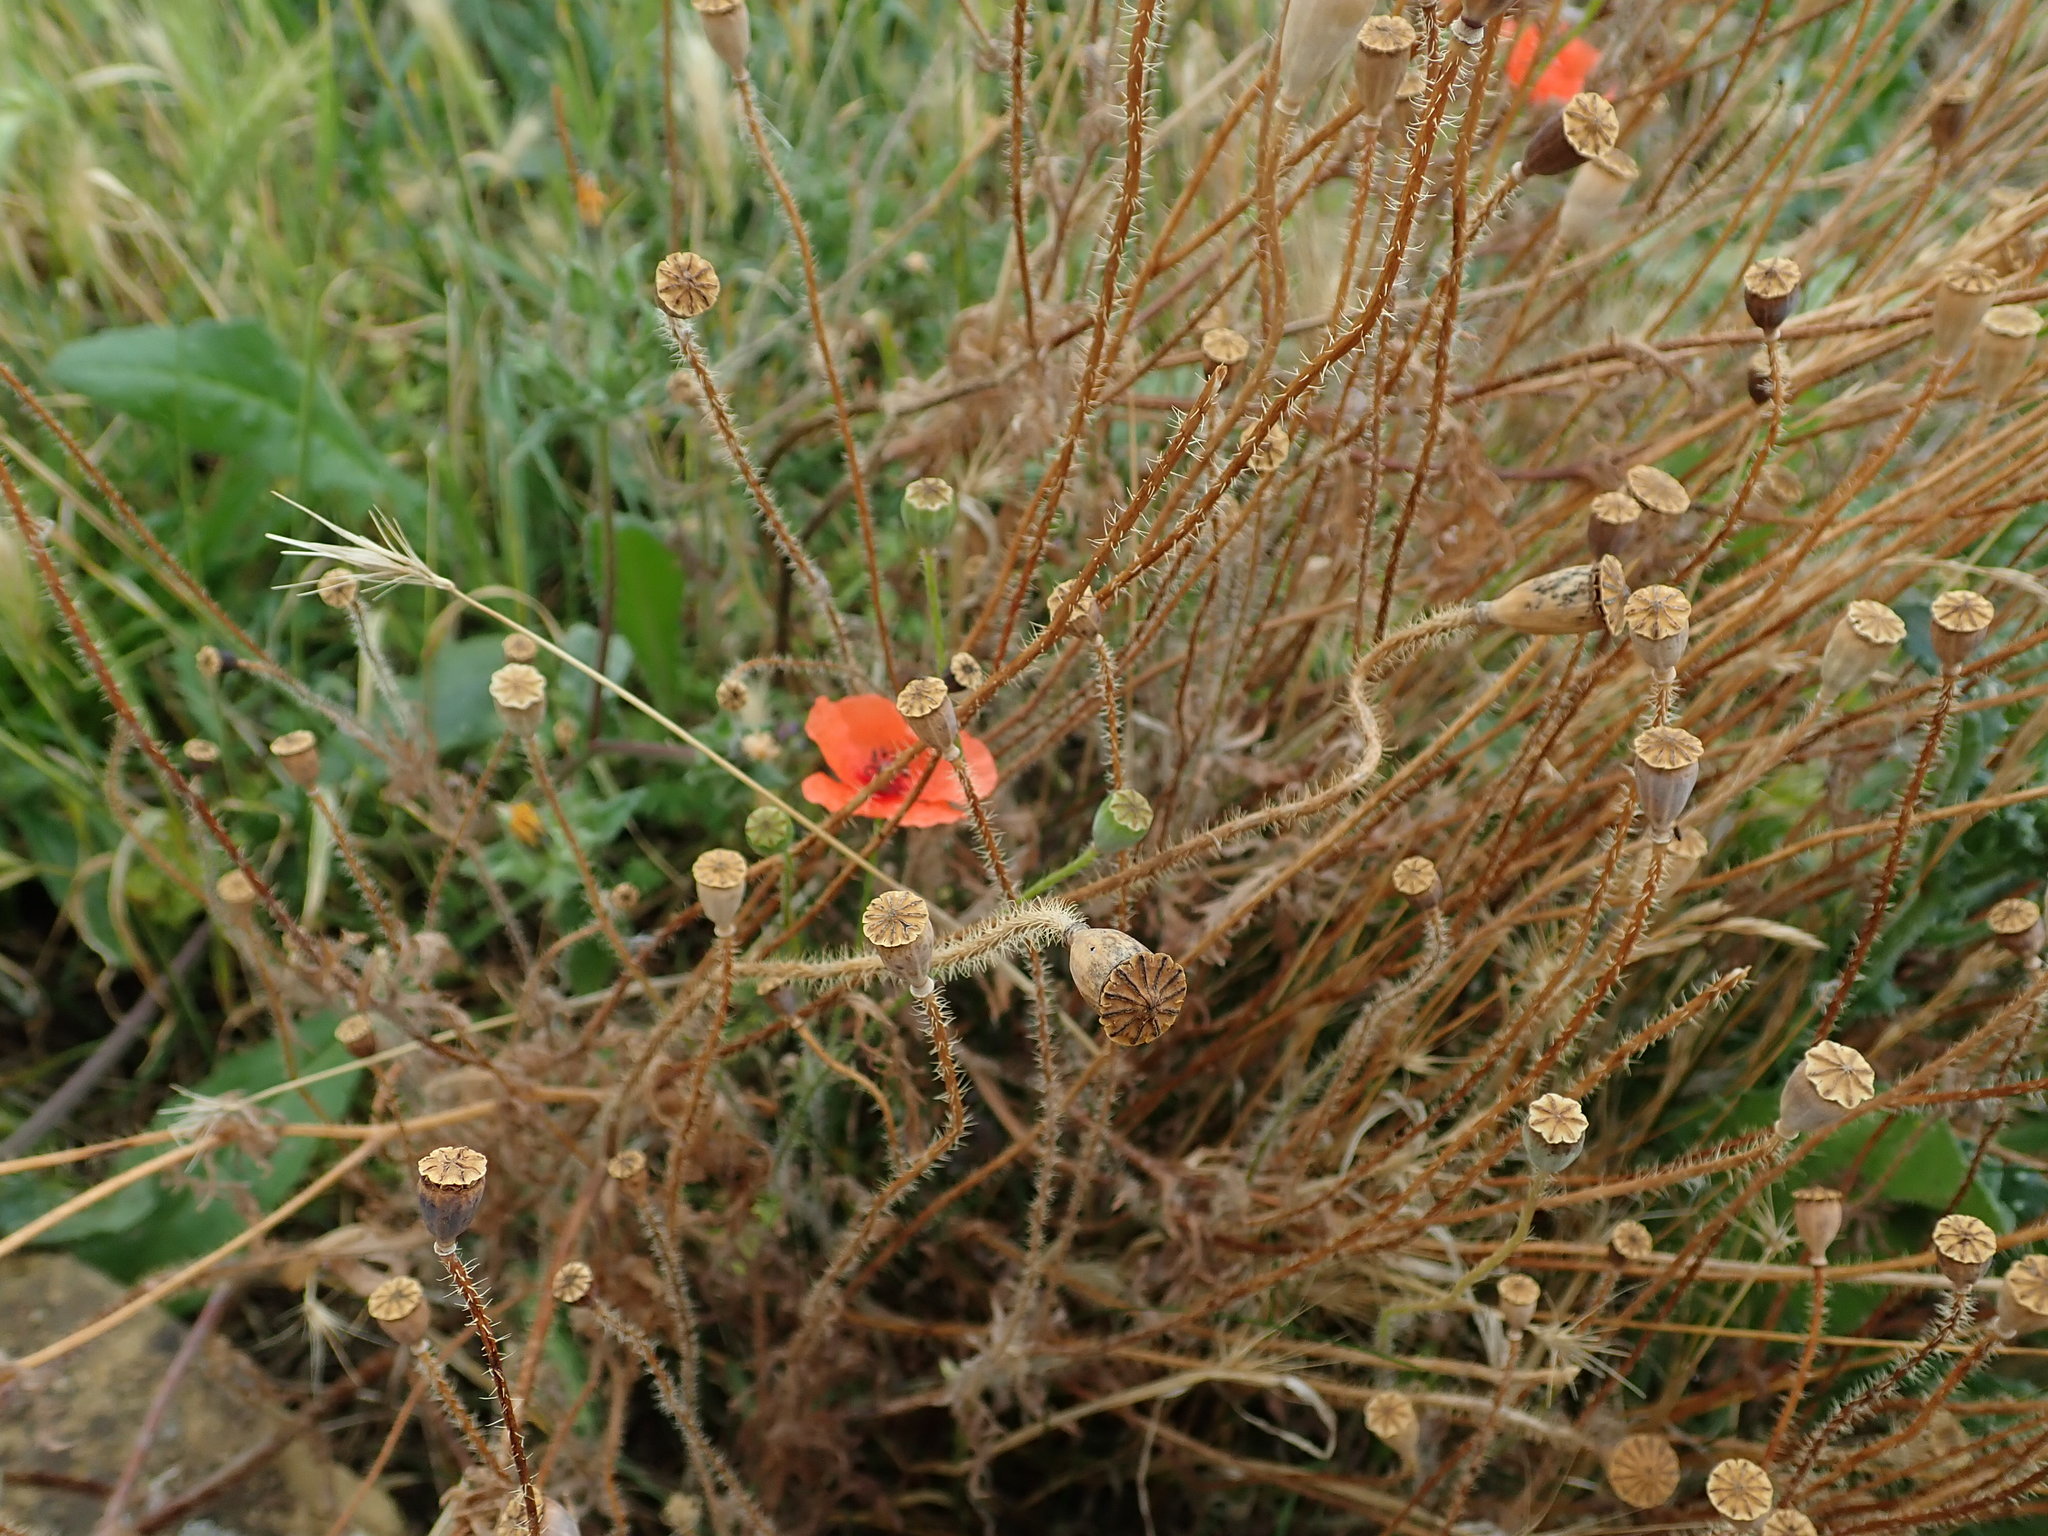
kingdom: Plantae
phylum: Tracheophyta
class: Magnoliopsida
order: Ranunculales
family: Papaveraceae
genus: Papaver
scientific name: Papaver rhoeas
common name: Corn poppy
